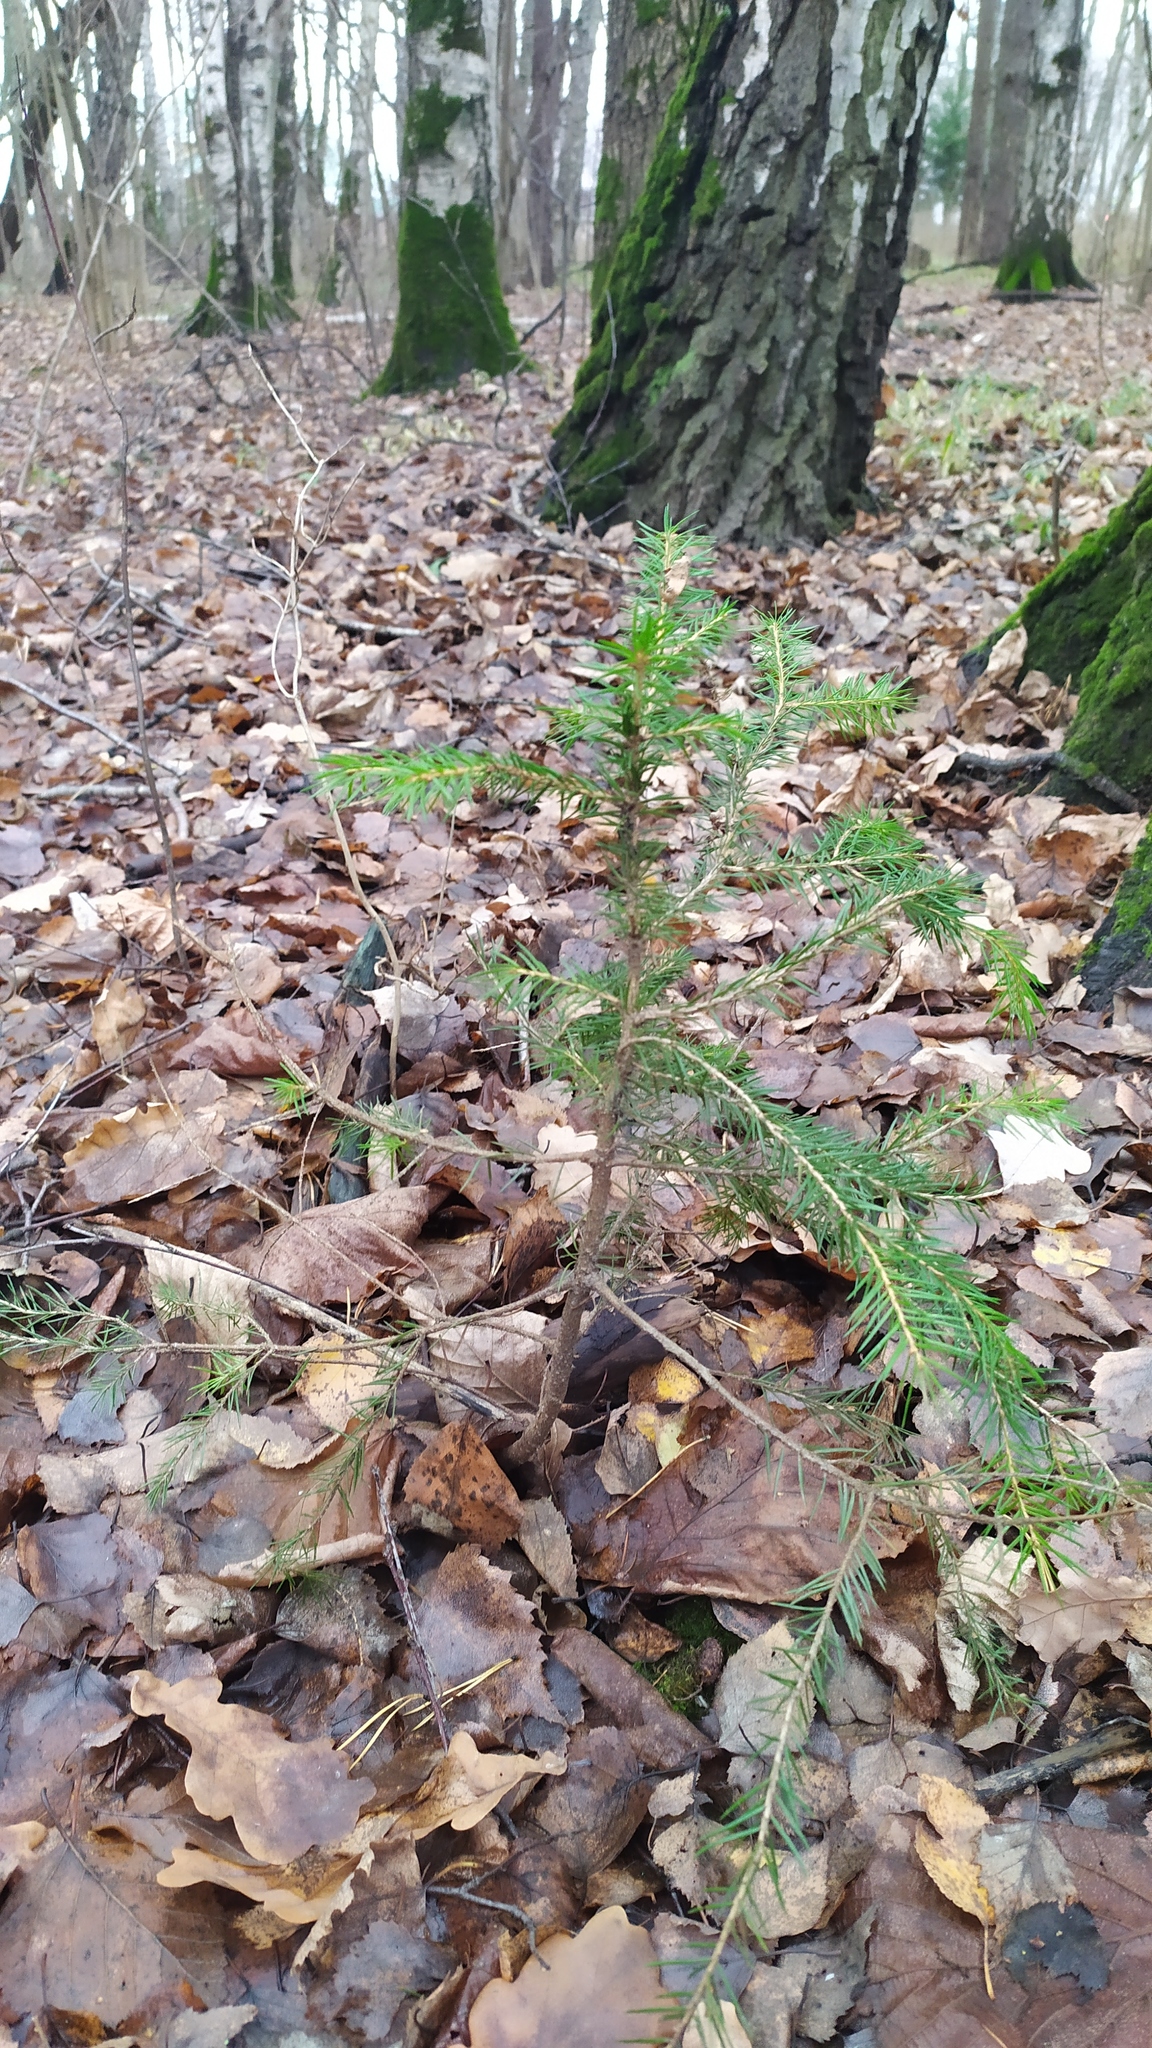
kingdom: Plantae
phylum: Tracheophyta
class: Pinopsida
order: Pinales
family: Pinaceae
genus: Picea
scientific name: Picea abies
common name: Norway spruce
